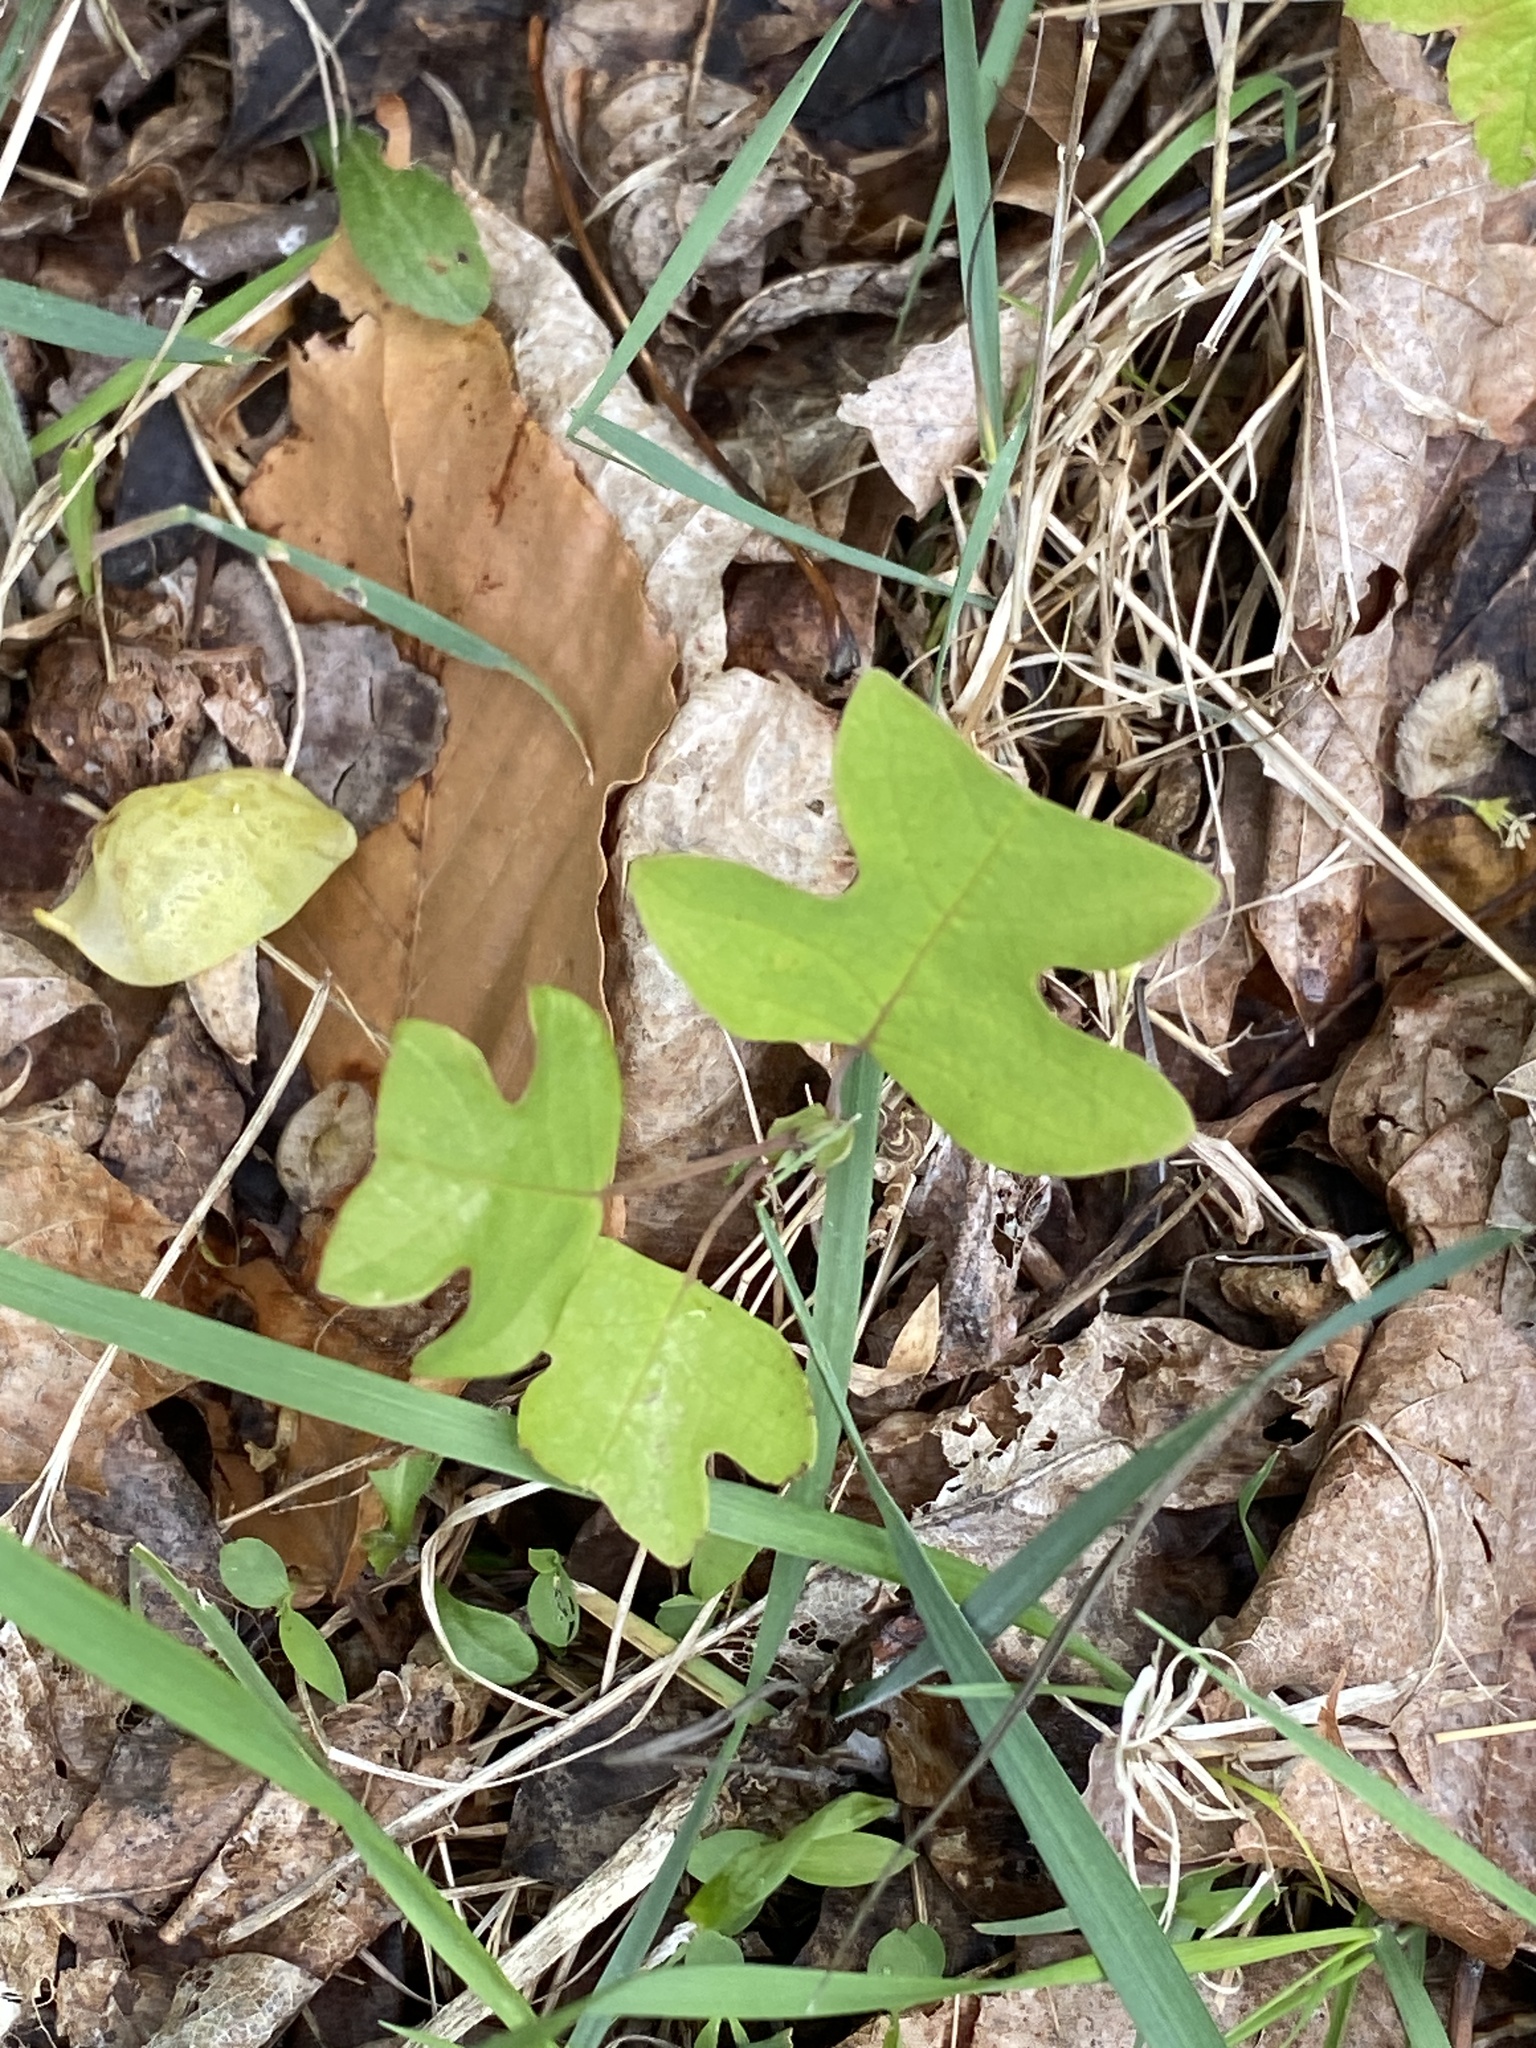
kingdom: Plantae
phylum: Tracheophyta
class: Magnoliopsida
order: Magnoliales
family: Magnoliaceae
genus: Liriodendron
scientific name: Liriodendron tulipifera
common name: Tulip tree
